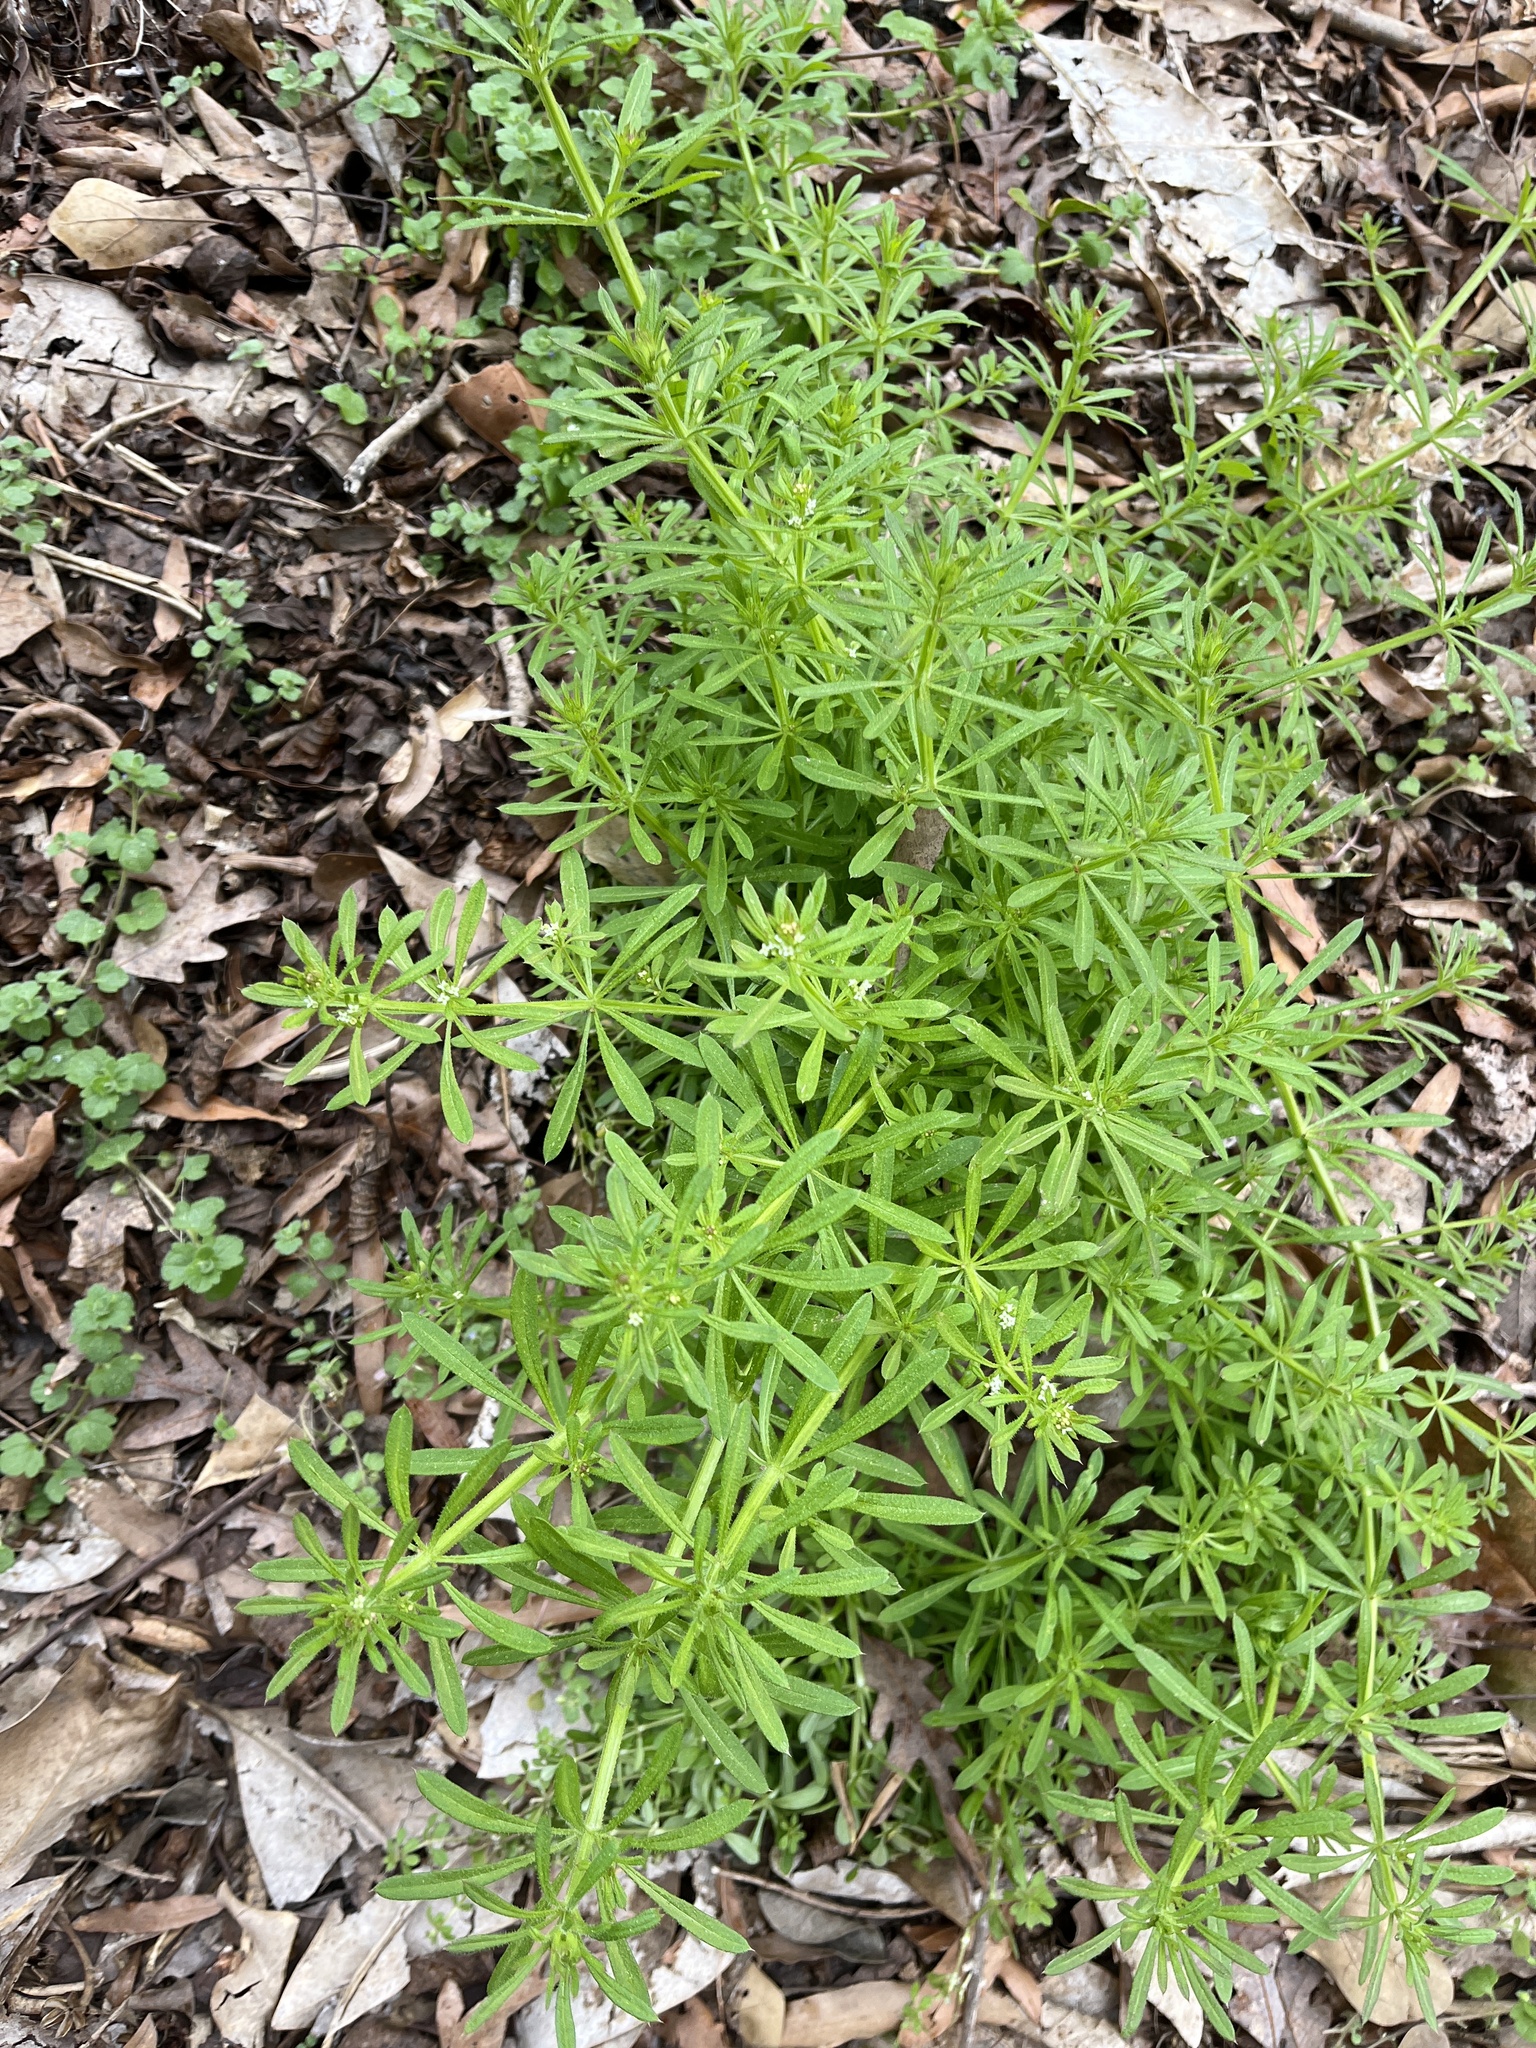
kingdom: Plantae
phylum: Tracheophyta
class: Magnoliopsida
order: Gentianales
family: Rubiaceae
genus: Galium
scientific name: Galium aparine
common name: Cleavers
